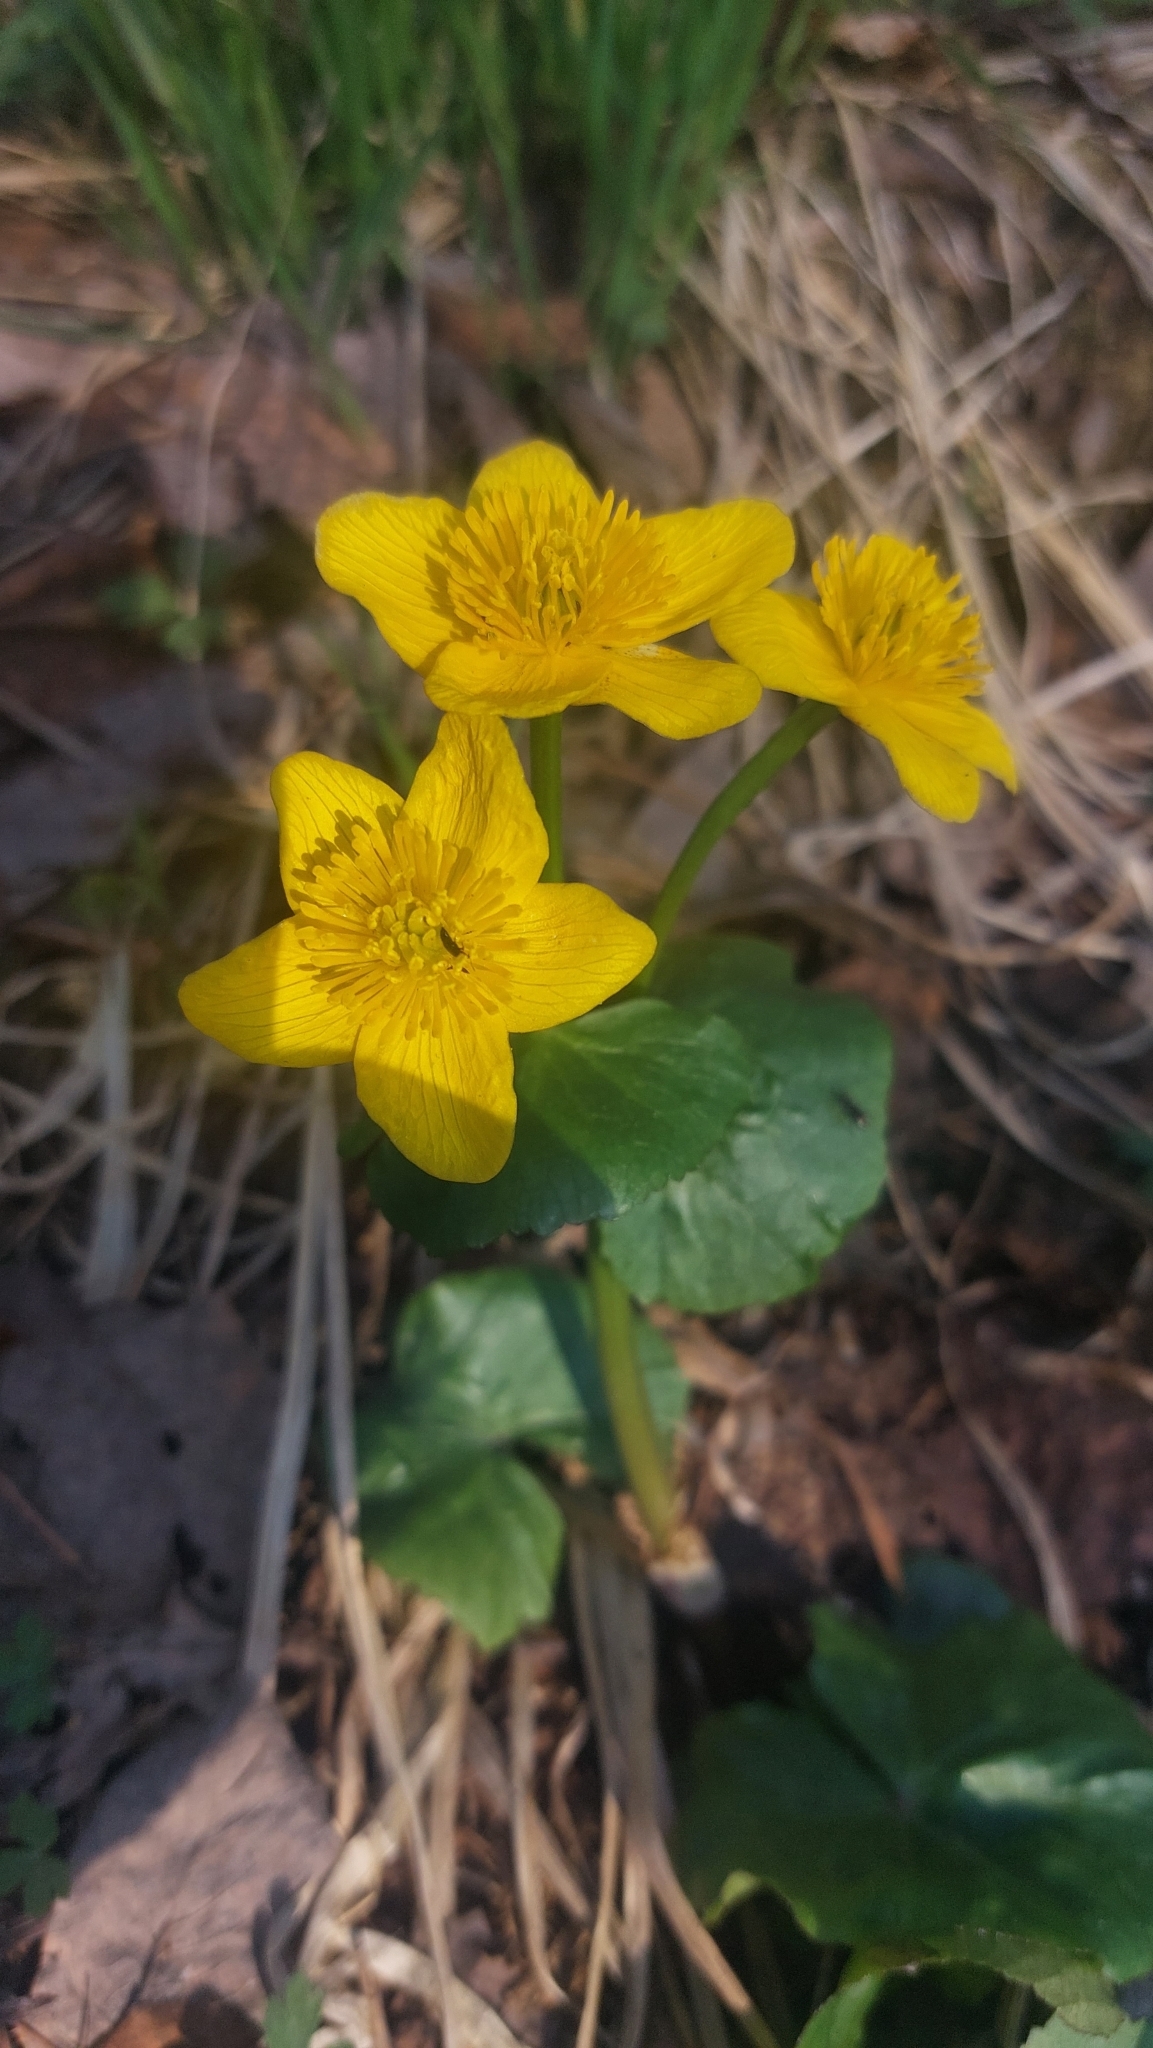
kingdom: Plantae
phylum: Tracheophyta
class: Magnoliopsida
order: Ranunculales
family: Ranunculaceae
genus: Caltha
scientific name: Caltha palustris
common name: Marsh marigold
